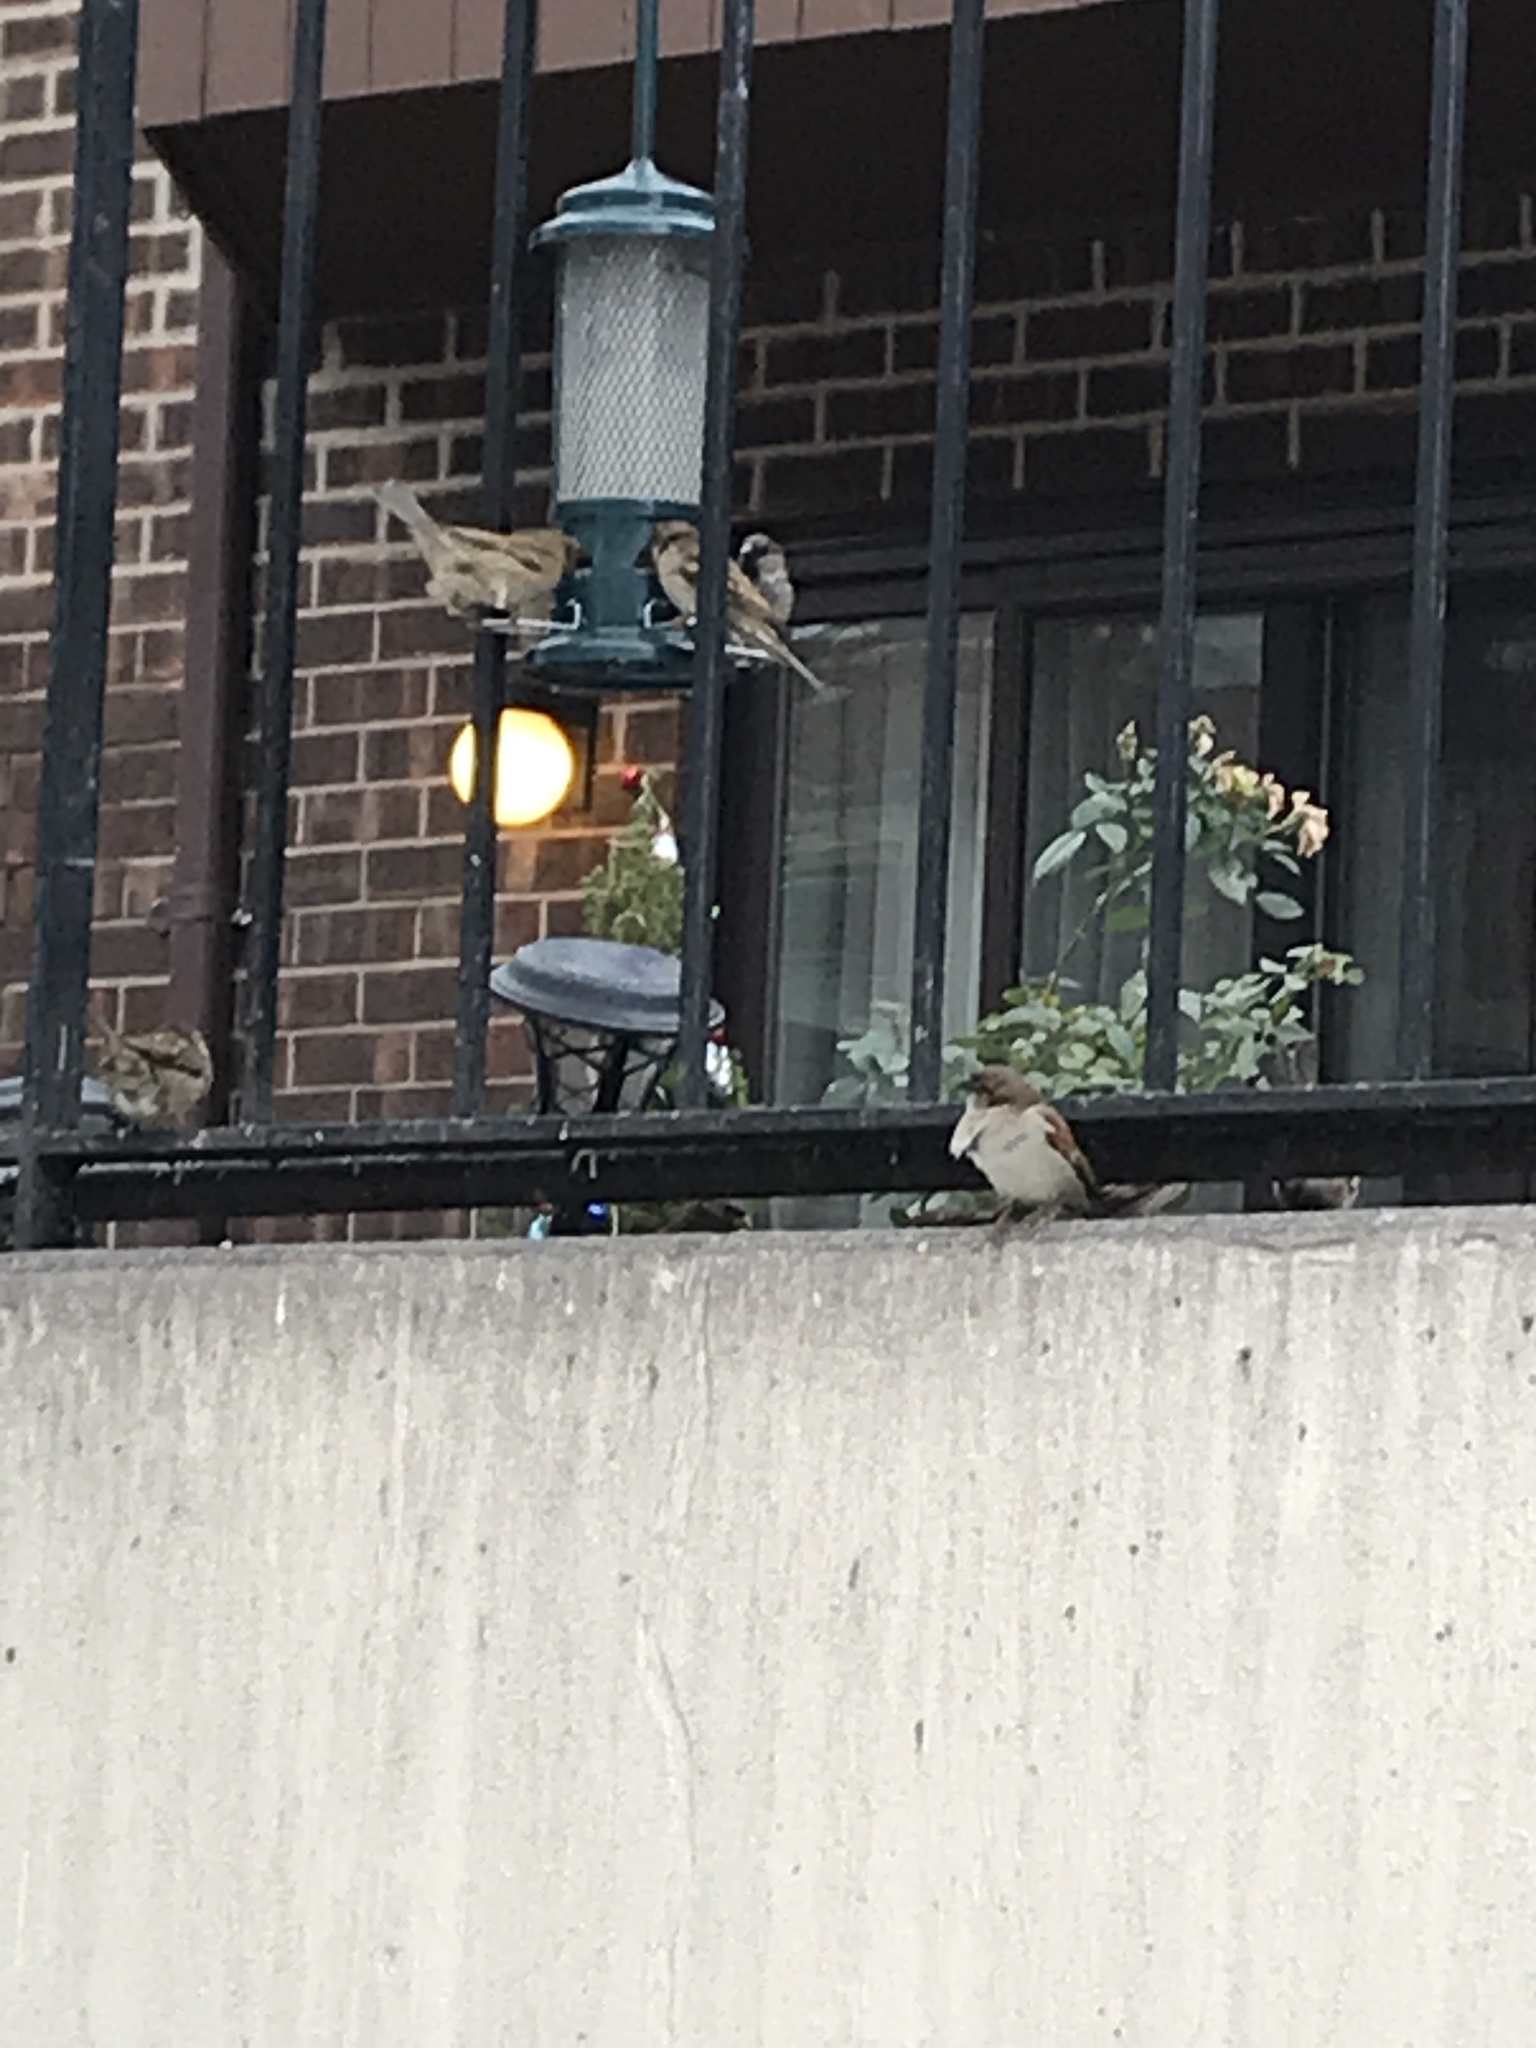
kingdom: Animalia
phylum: Chordata
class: Aves
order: Passeriformes
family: Passeridae
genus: Passer
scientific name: Passer domesticus
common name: House sparrow
